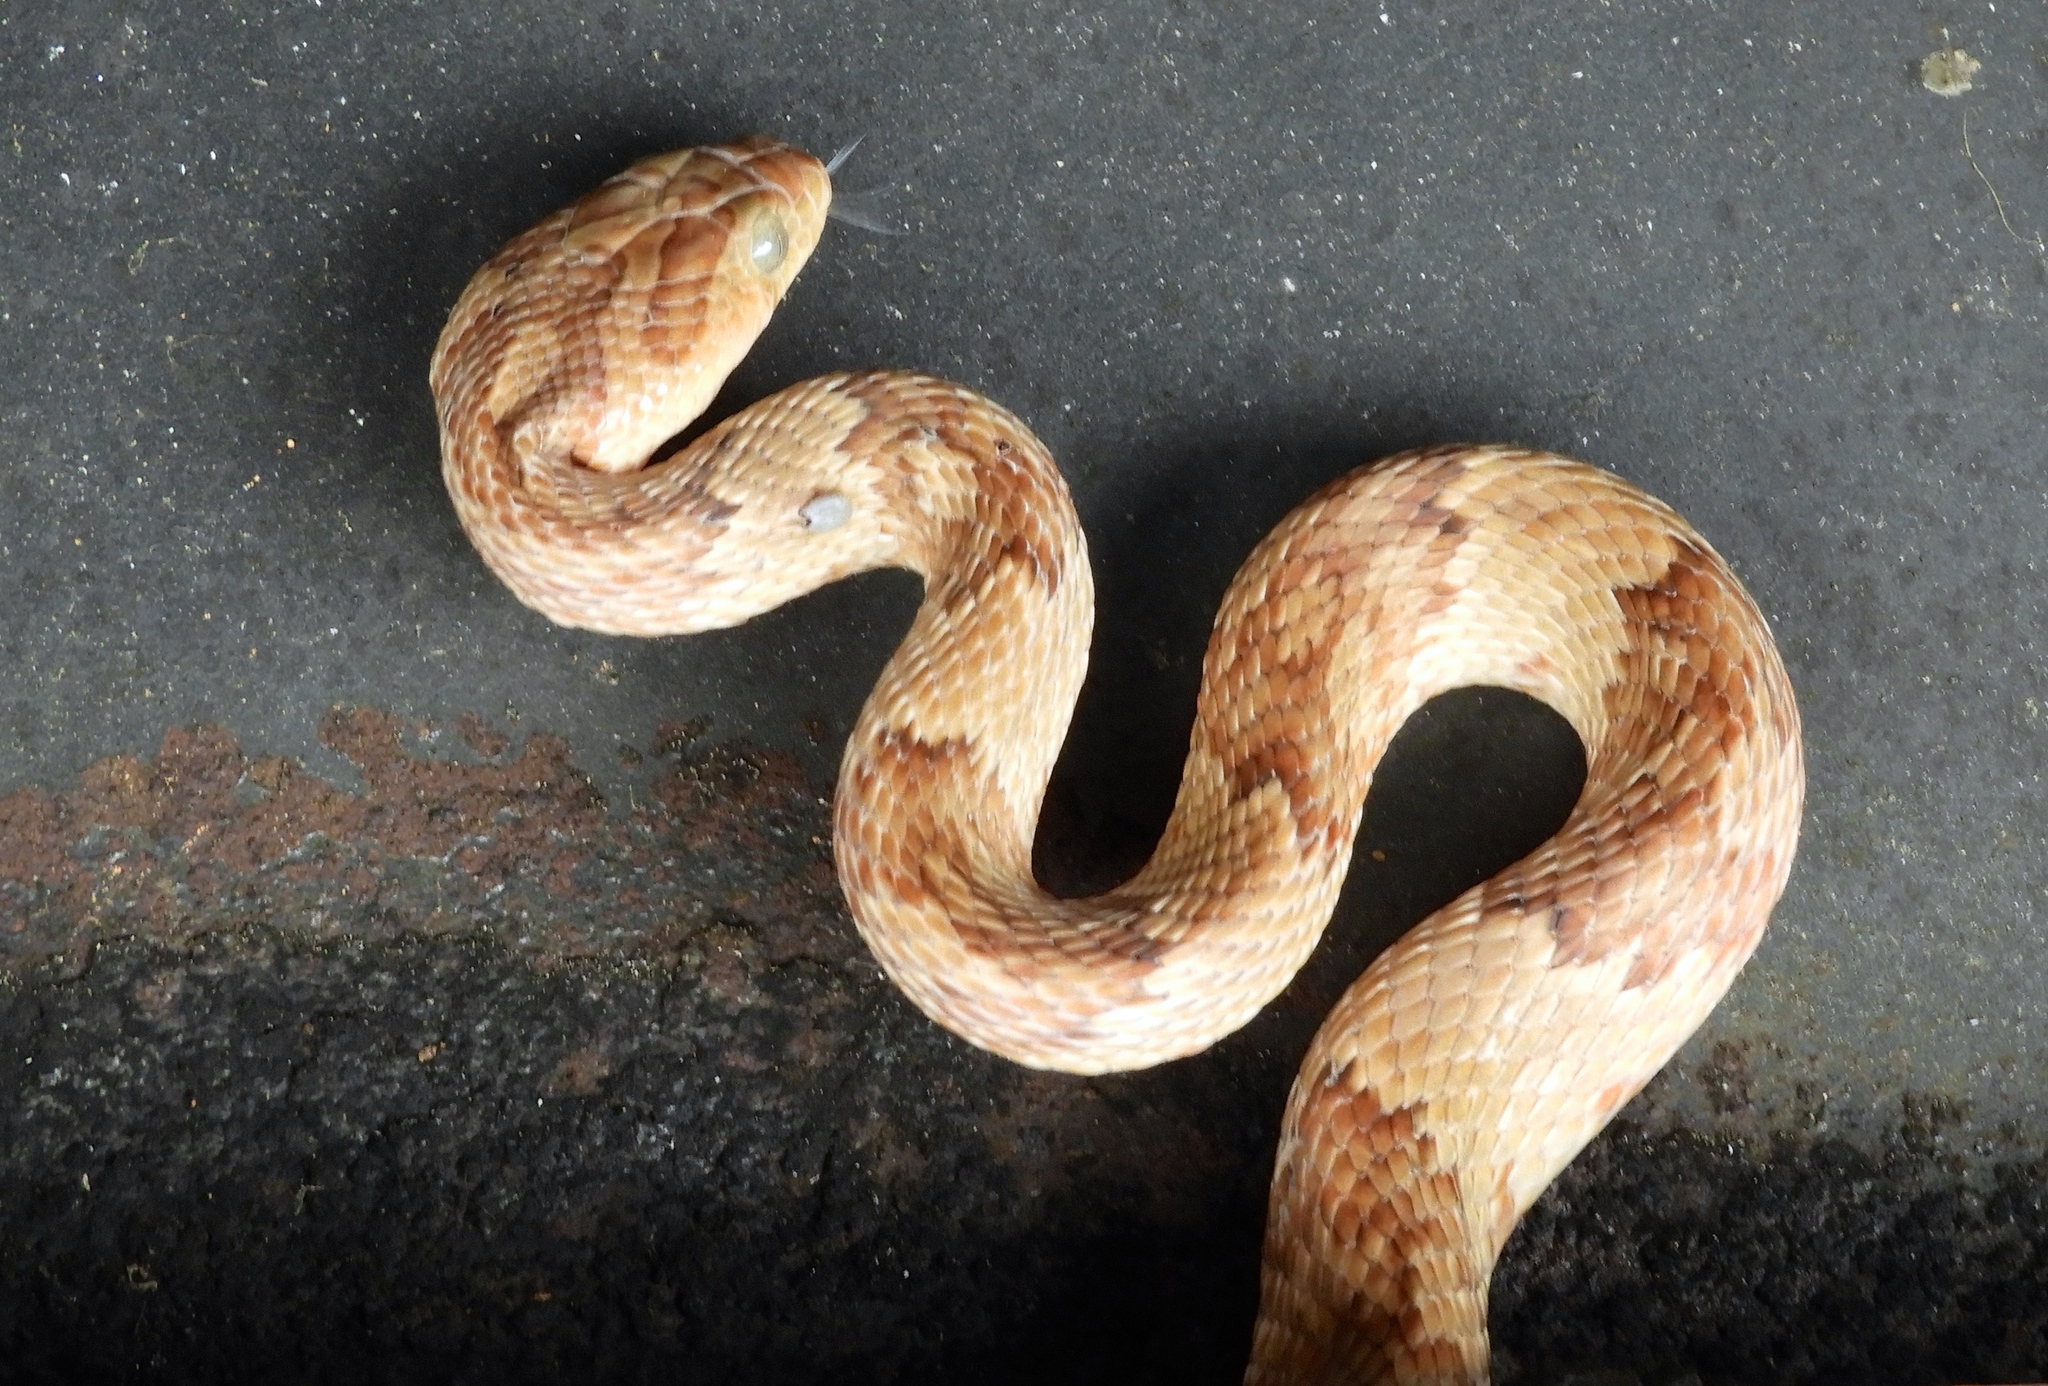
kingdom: Animalia
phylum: Chordata
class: Squamata
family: Colubridae
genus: Trimorphodon
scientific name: Trimorphodon paucimaculatus
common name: Sinaloan lyresnake
